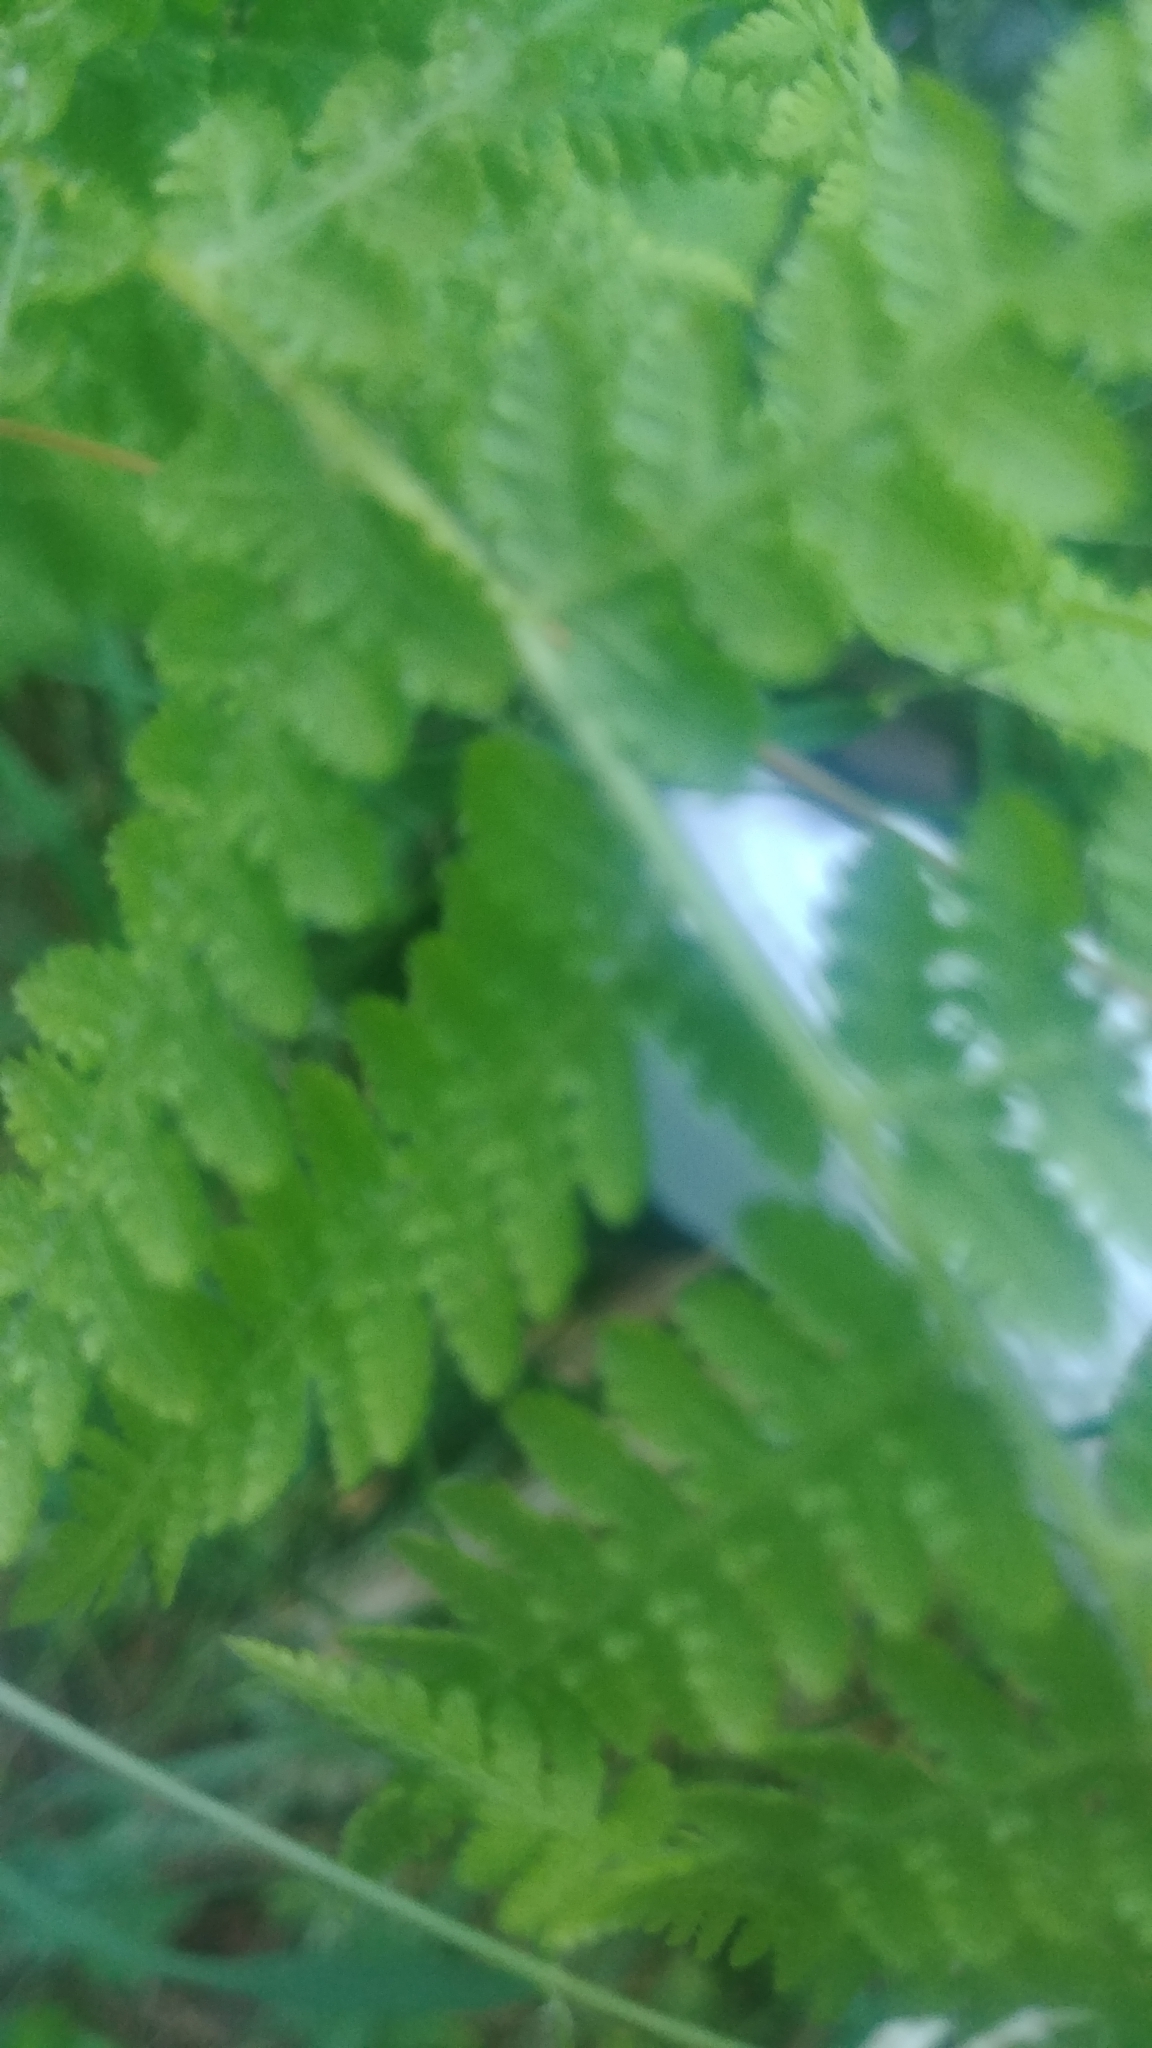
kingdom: Plantae
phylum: Tracheophyta
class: Polypodiopsida
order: Polypodiales
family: Dennstaedtiaceae
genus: Sitobolium
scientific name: Sitobolium punctilobum
